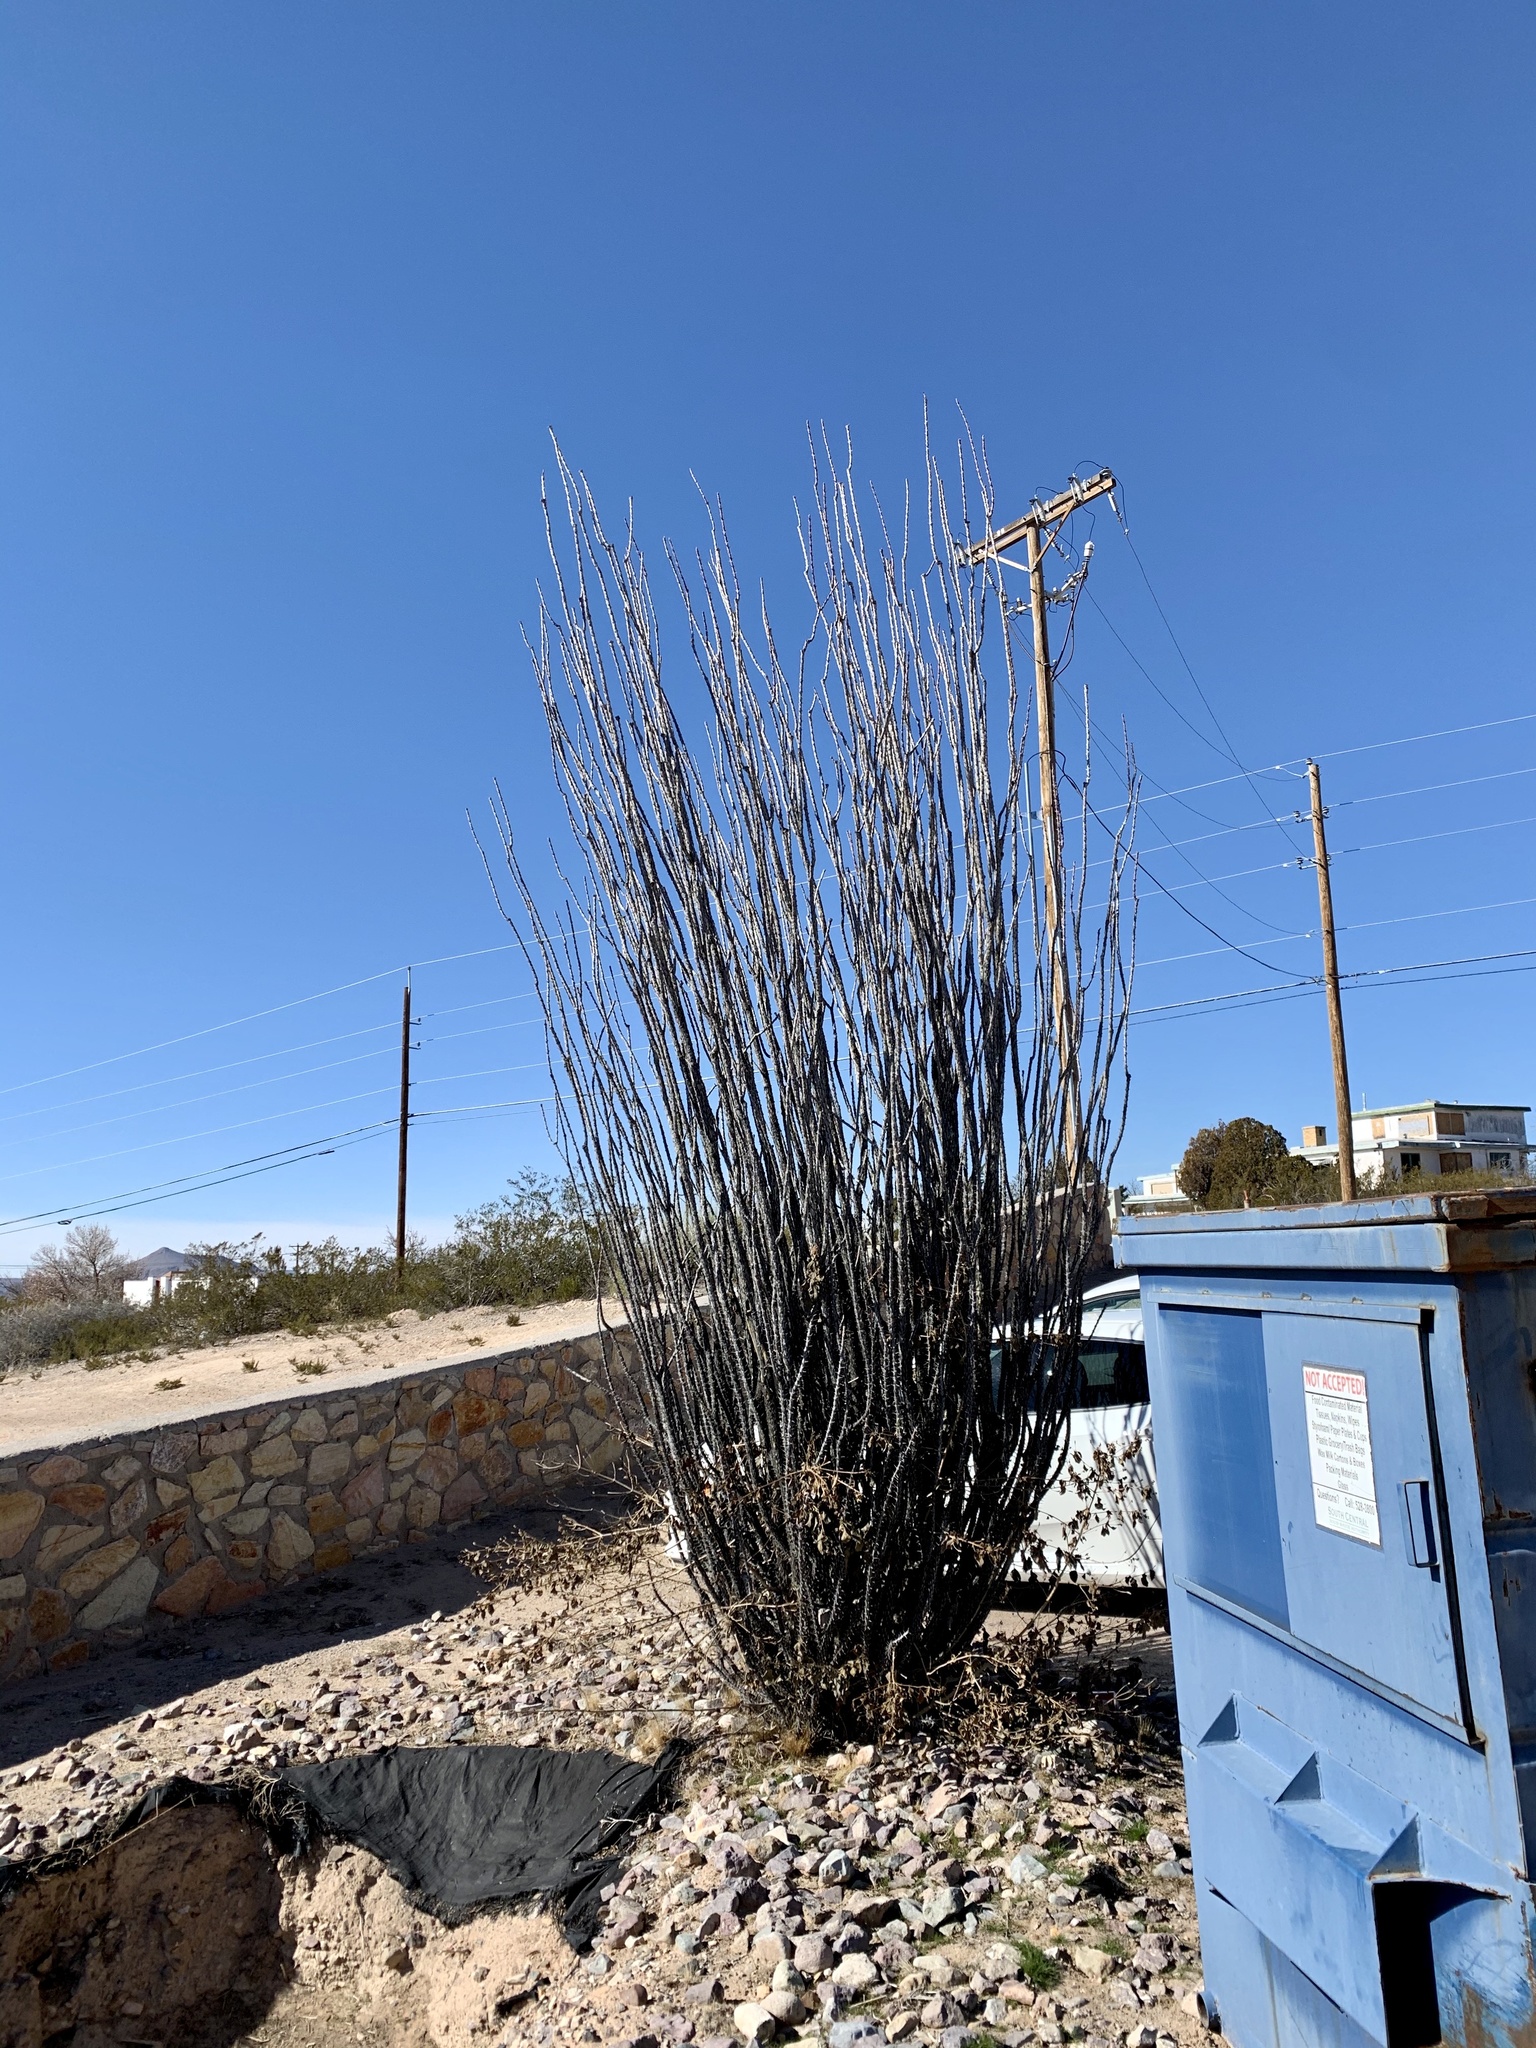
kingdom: Plantae
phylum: Tracheophyta
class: Magnoliopsida
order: Ericales
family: Fouquieriaceae
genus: Fouquieria
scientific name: Fouquieria splendens
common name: Vine-cactus
